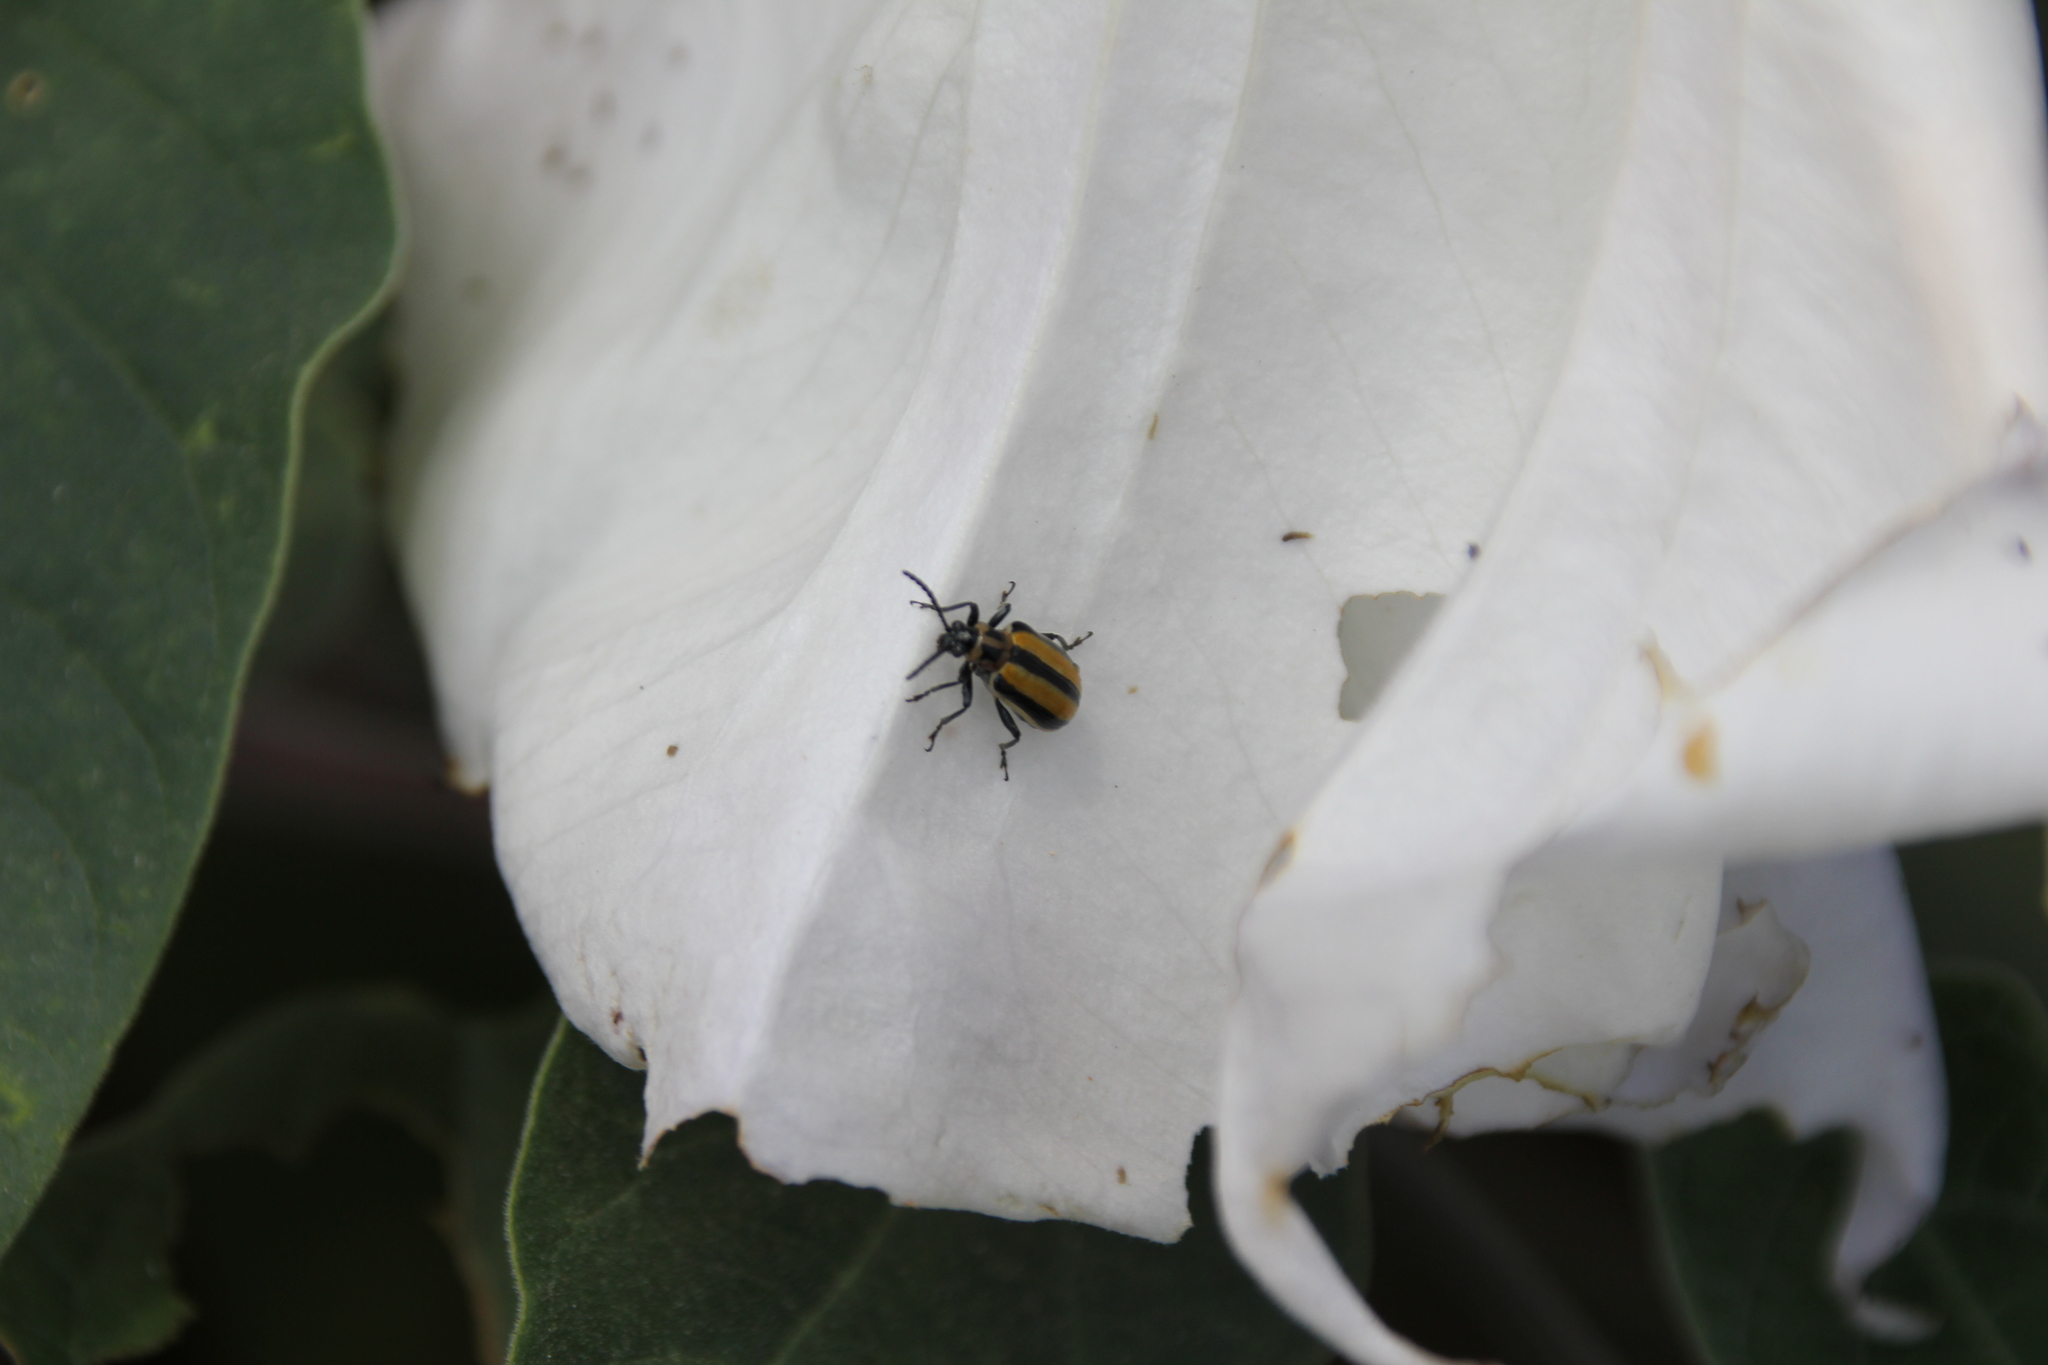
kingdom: Animalia
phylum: Arthropoda
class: Insecta
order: Coleoptera
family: Chrysomelidae
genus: Lema
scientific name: Lema daturaphila
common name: Leaf beetle
